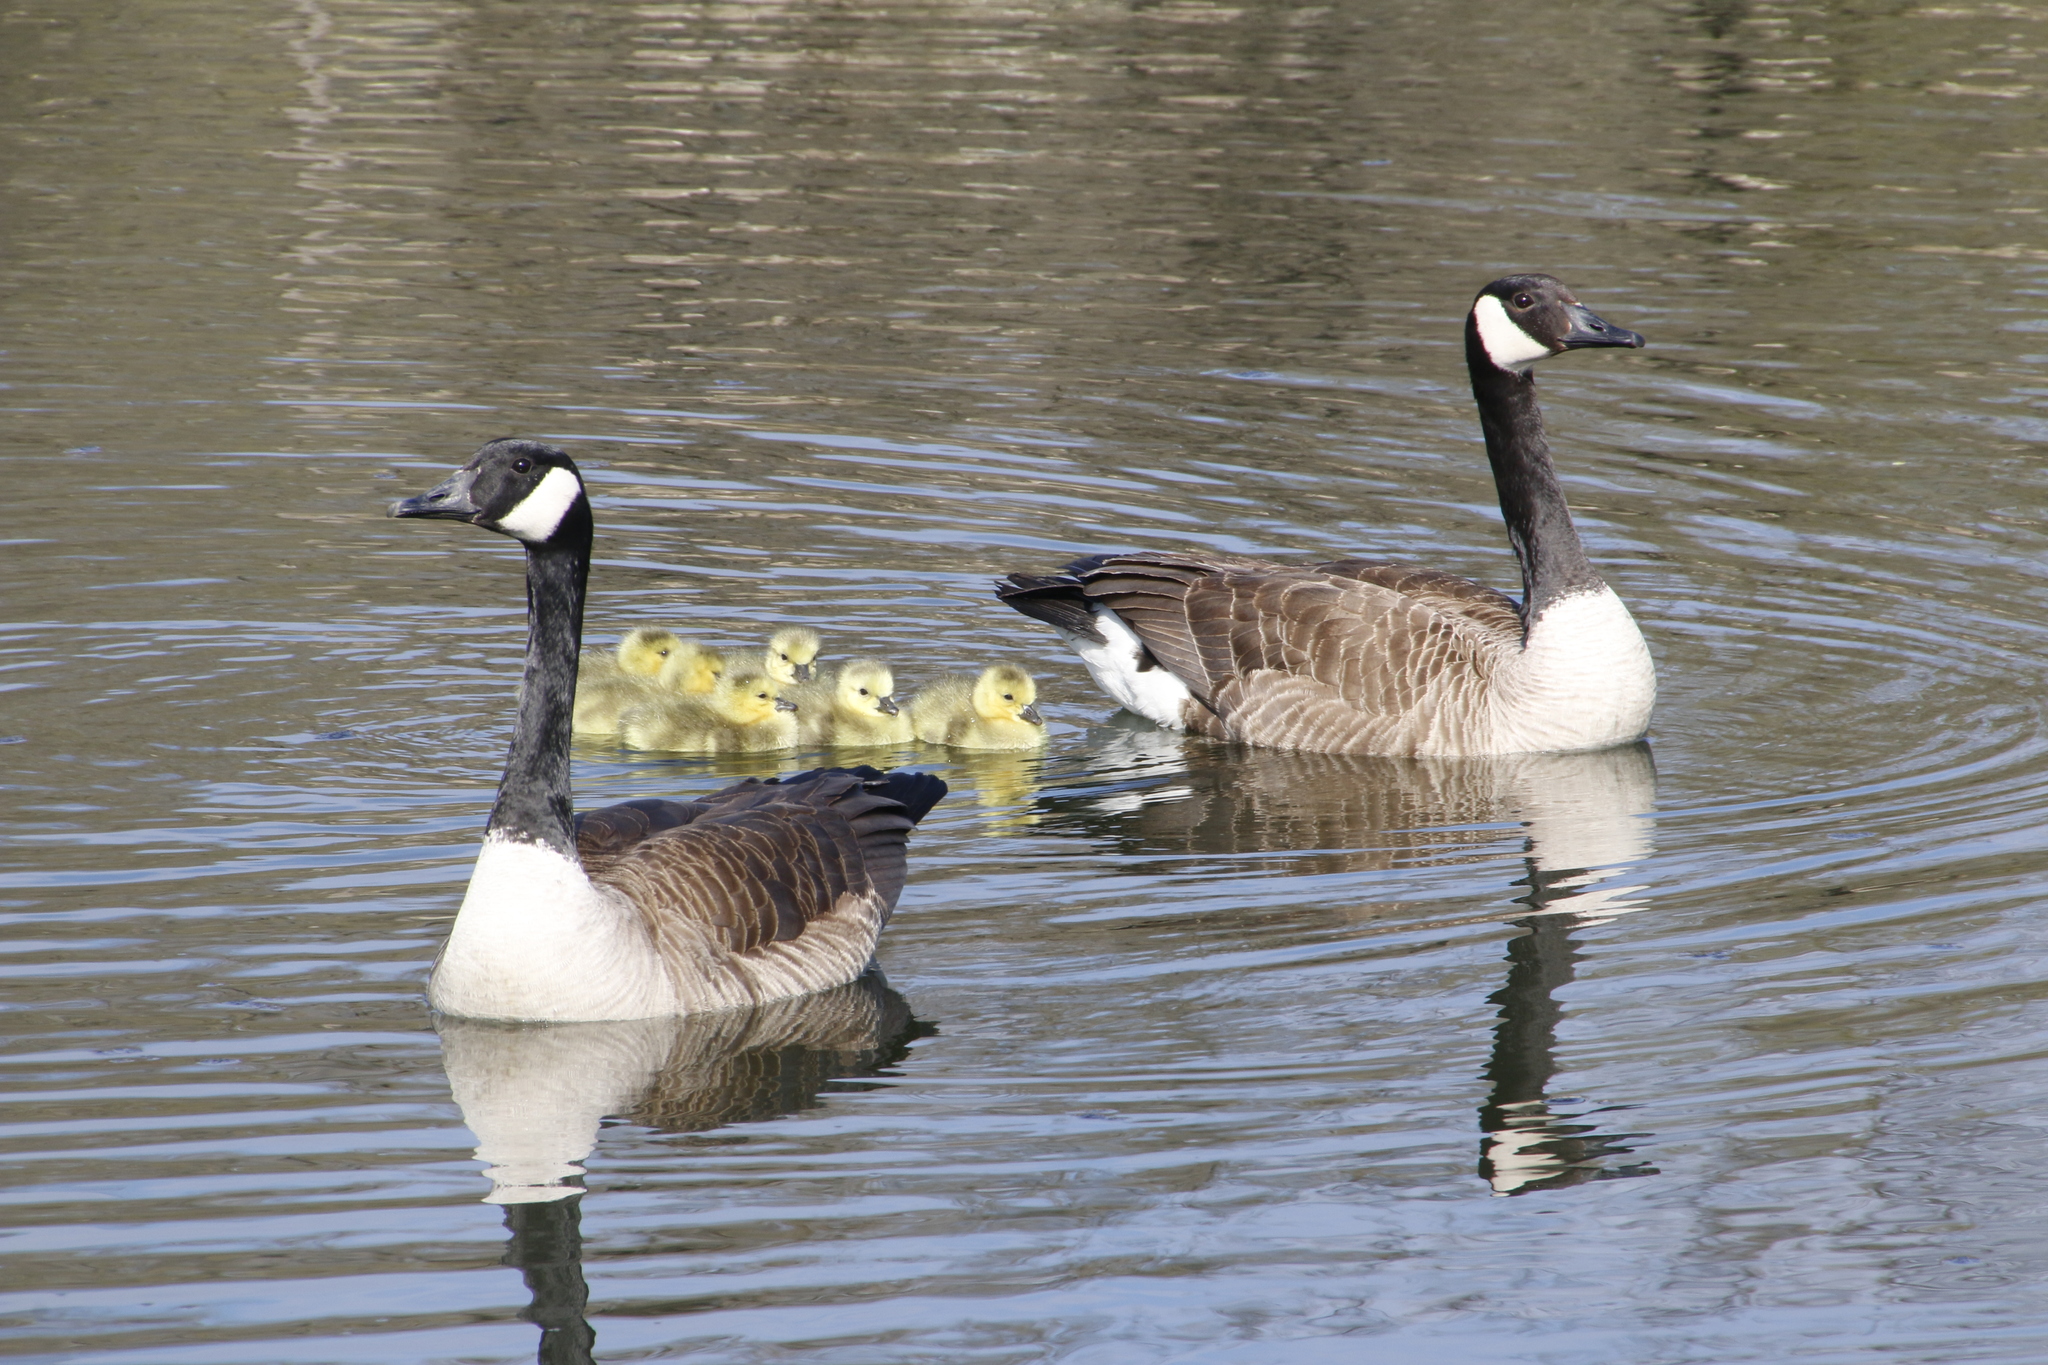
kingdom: Animalia
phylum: Chordata
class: Aves
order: Anseriformes
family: Anatidae
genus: Branta
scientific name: Branta canadensis
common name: Canada goose
